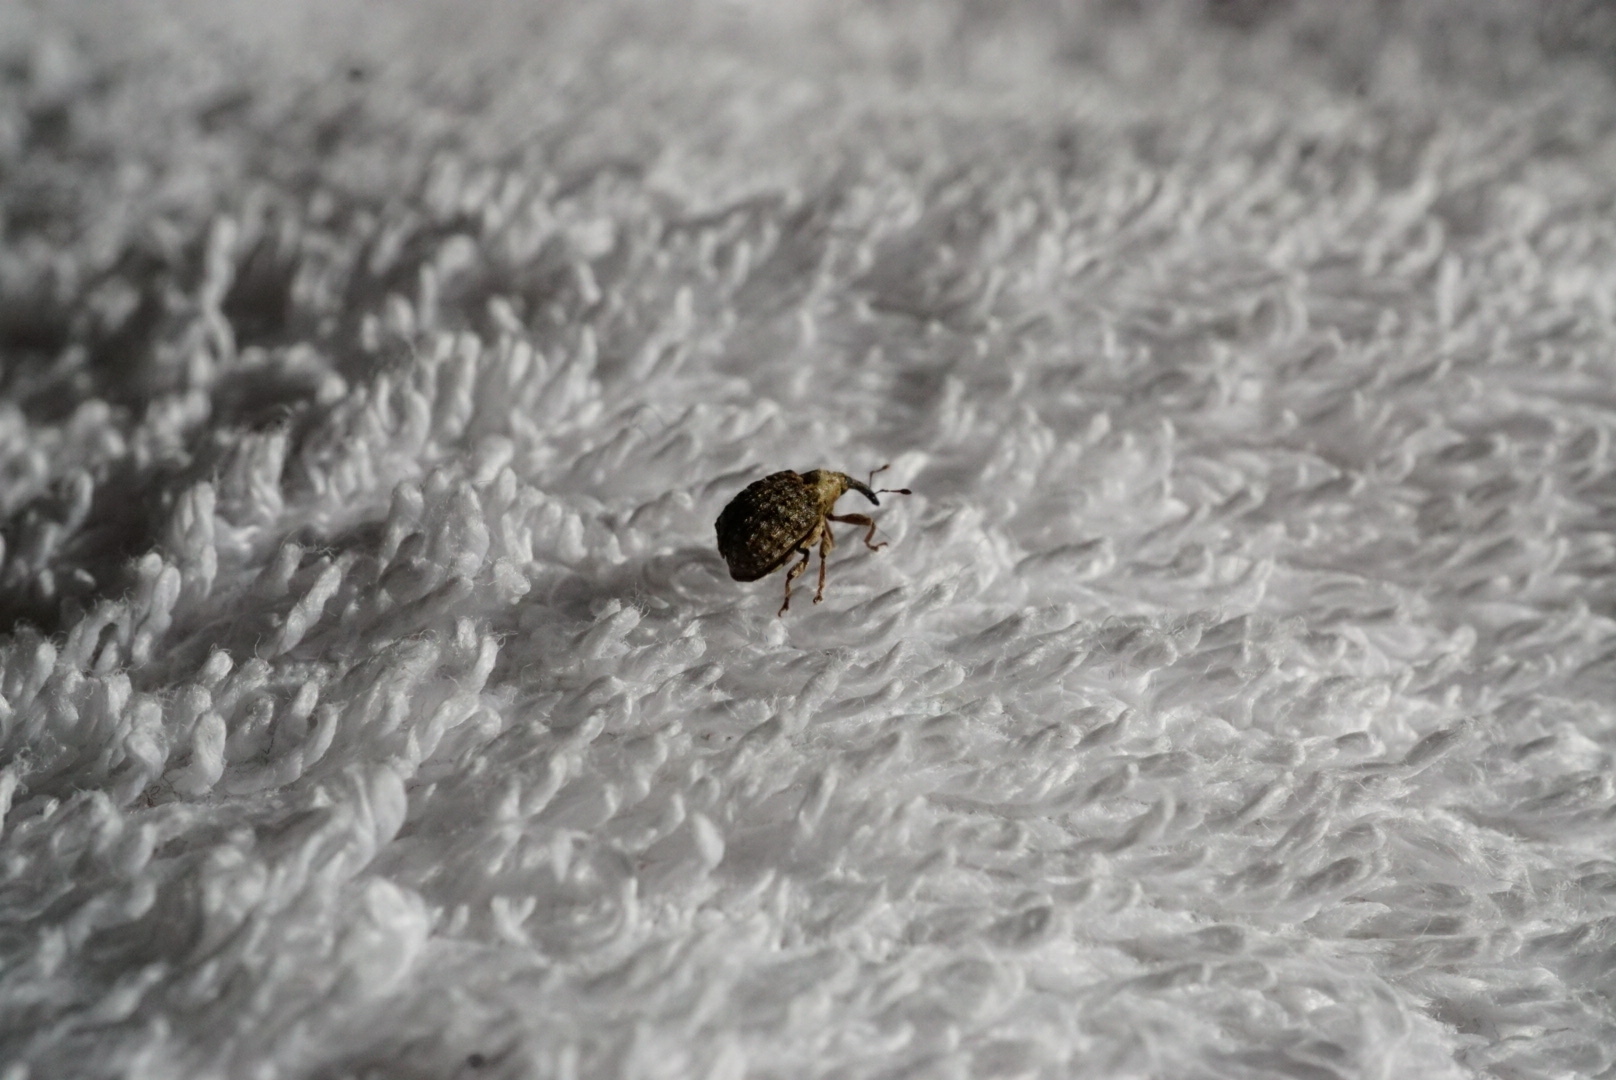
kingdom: Animalia
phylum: Arthropoda
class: Insecta
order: Coleoptera
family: Curculionidae
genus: Cleopus
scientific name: Cleopus japonicus
